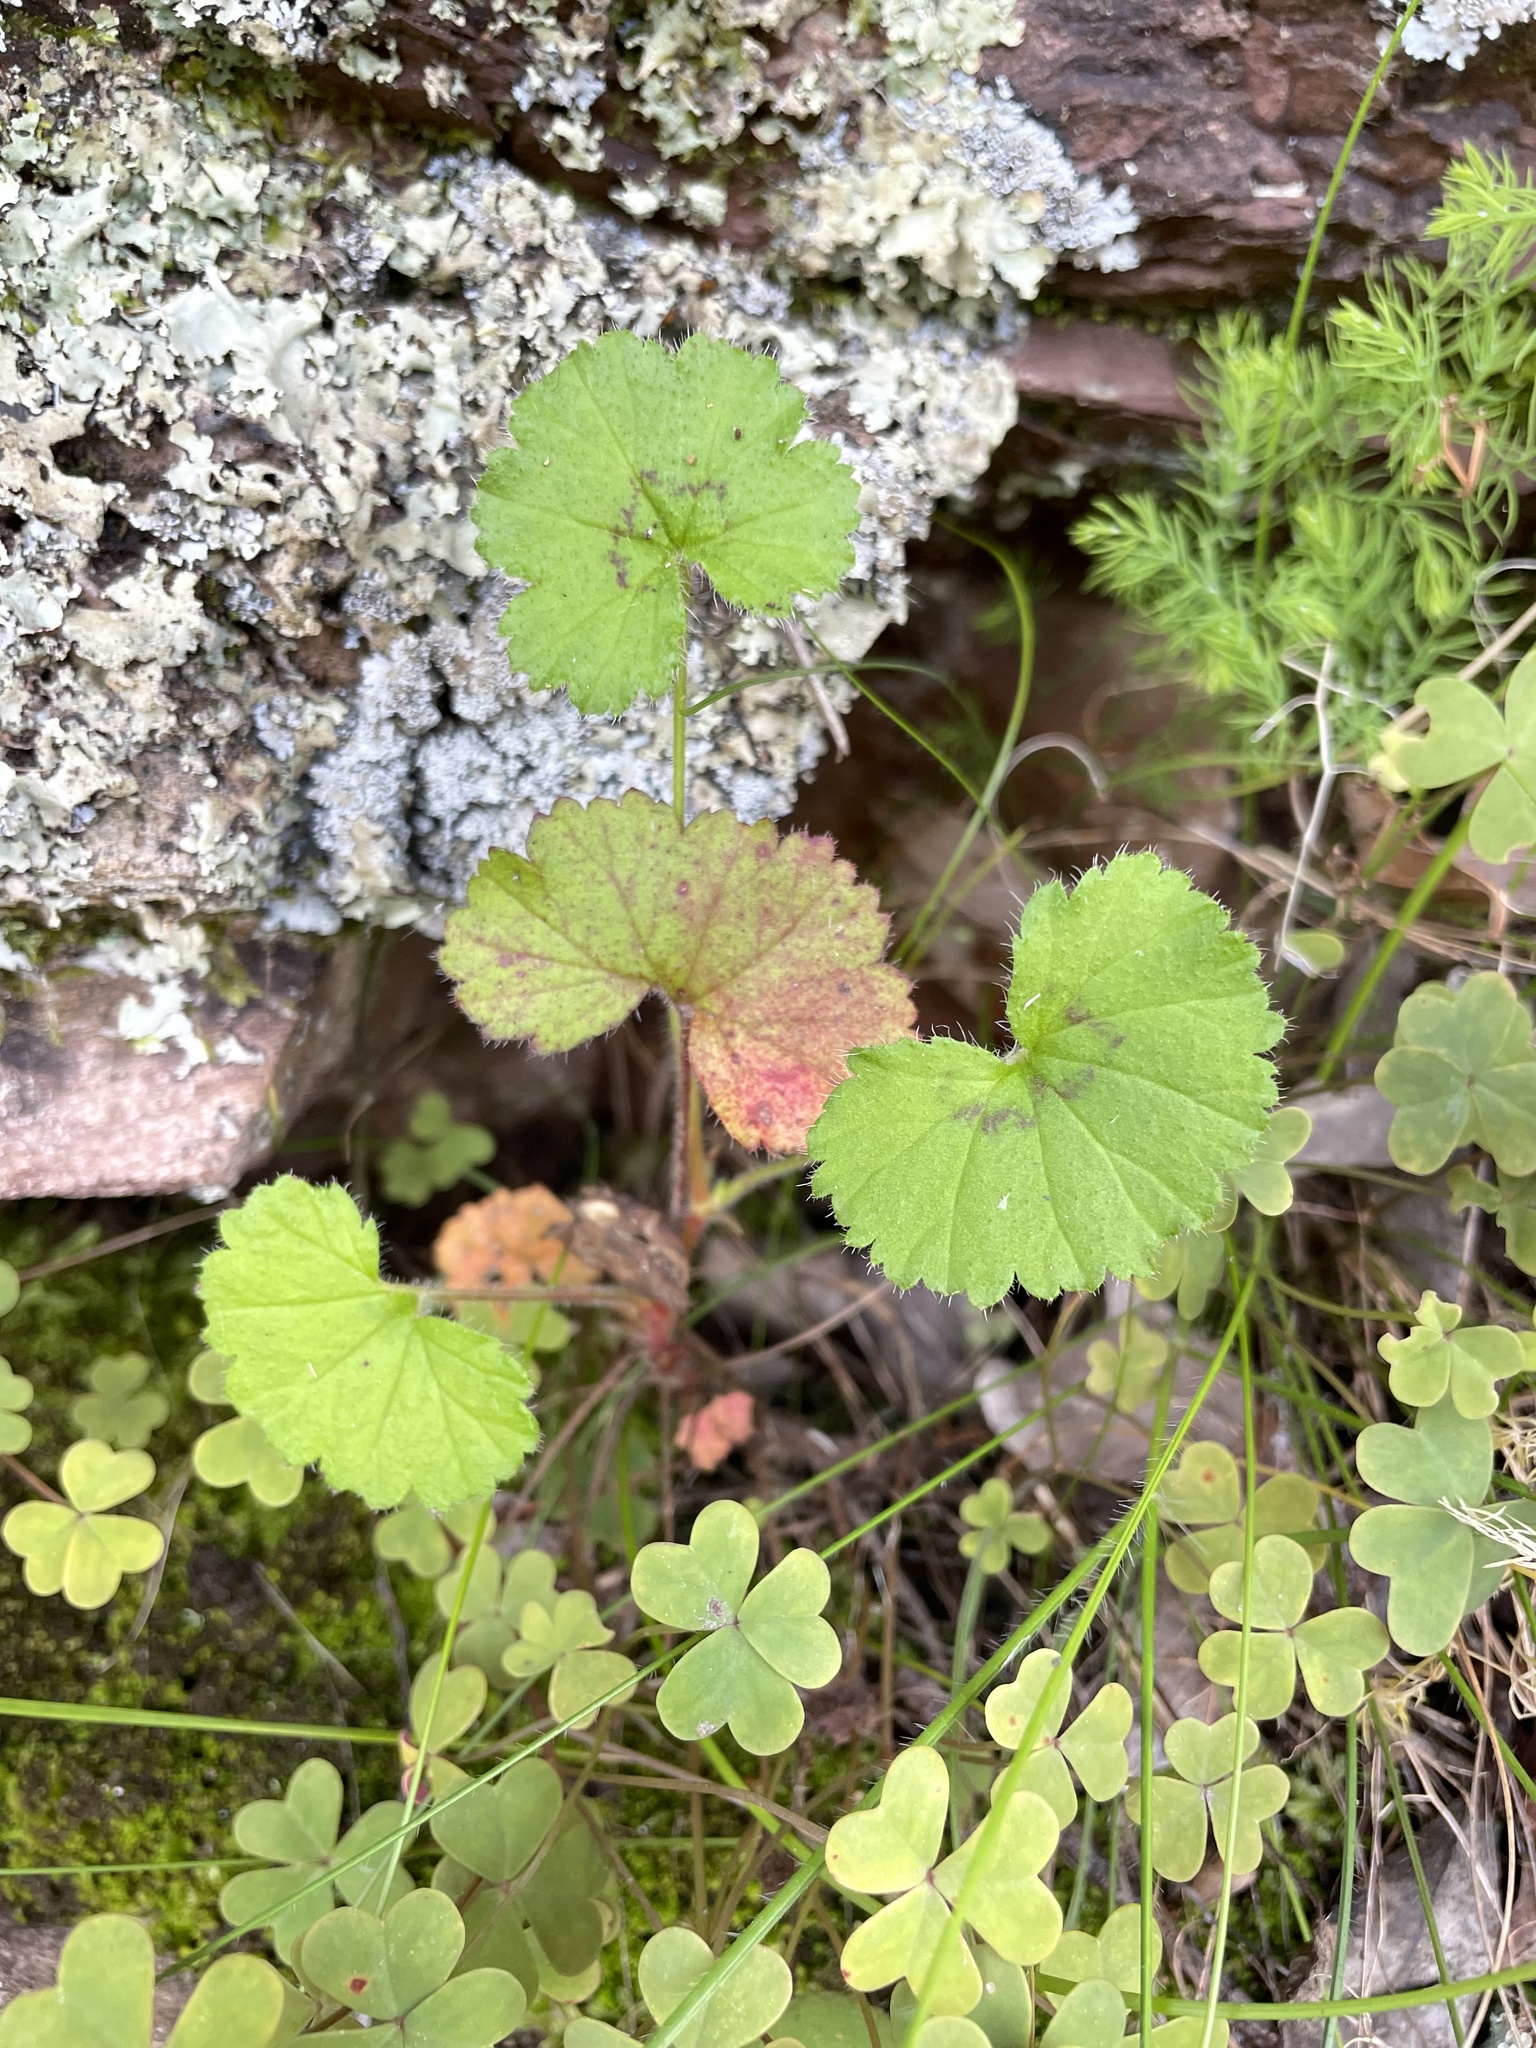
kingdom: Plantae
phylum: Tracheophyta
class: Magnoliopsida
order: Geraniales
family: Geraniaceae
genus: Pelargonium
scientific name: Pelargonium elongatum
